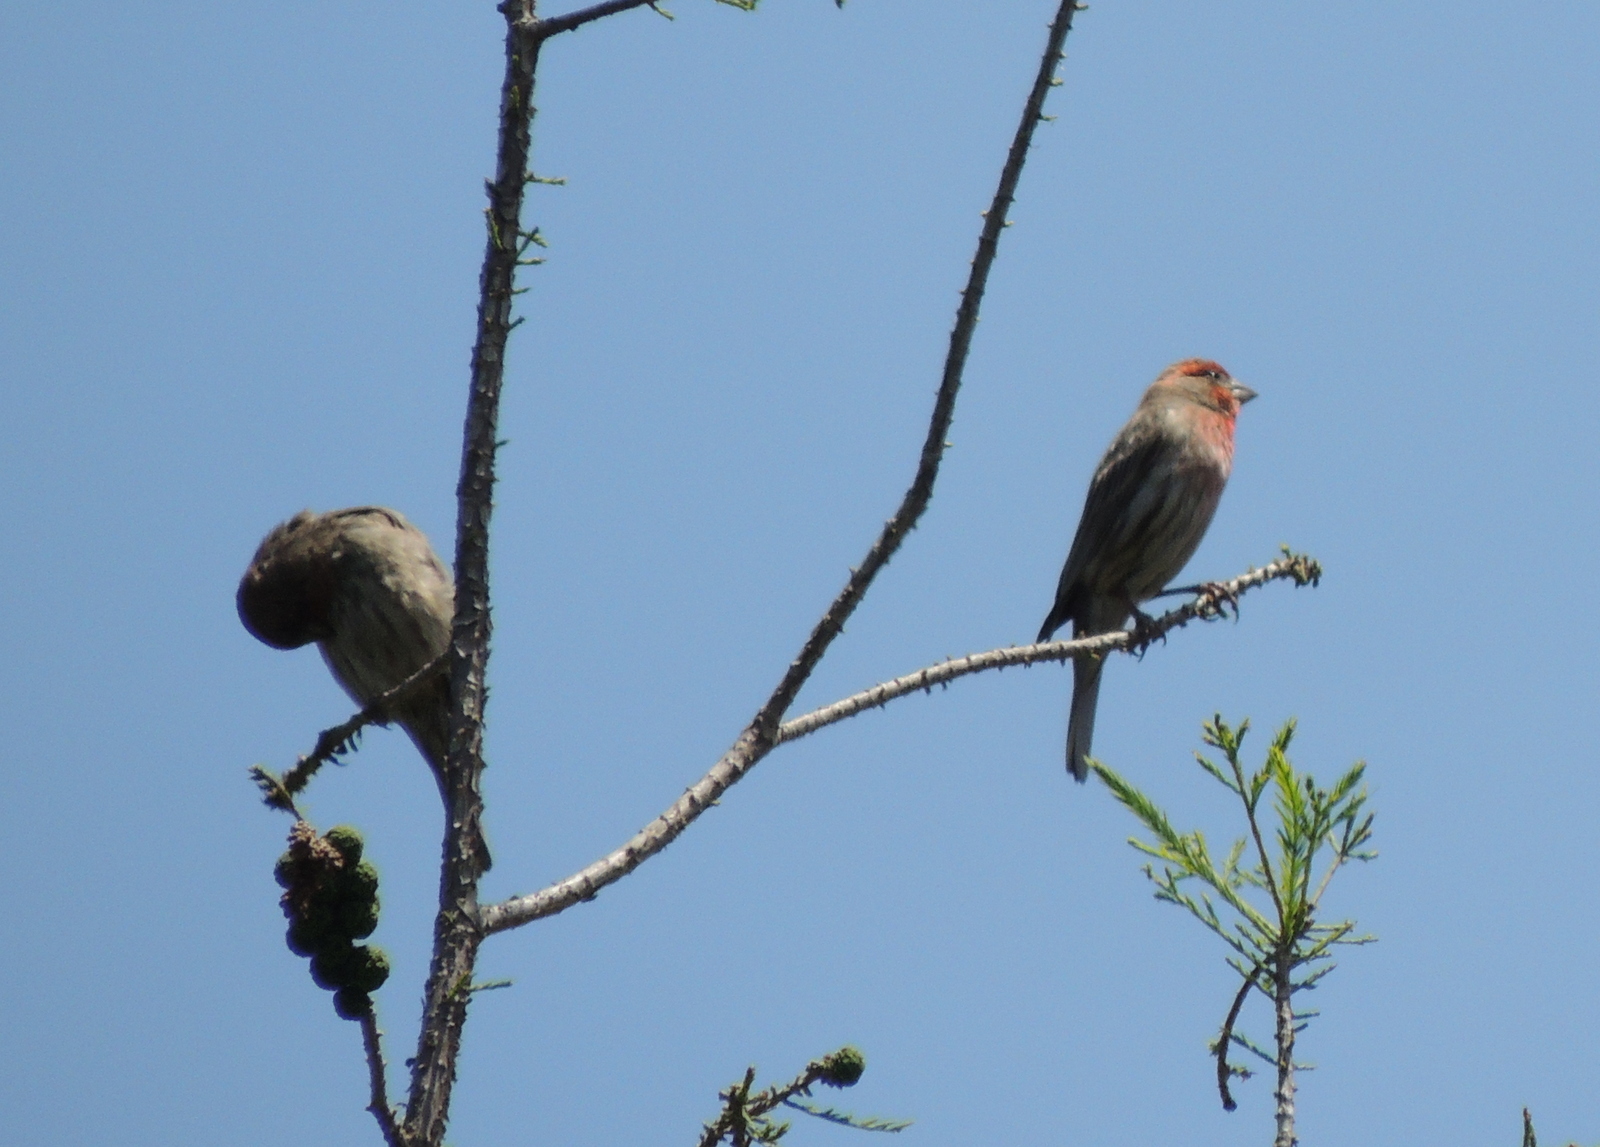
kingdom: Animalia
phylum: Chordata
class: Aves
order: Passeriformes
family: Fringillidae
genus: Haemorhous
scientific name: Haemorhous mexicanus
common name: House finch
